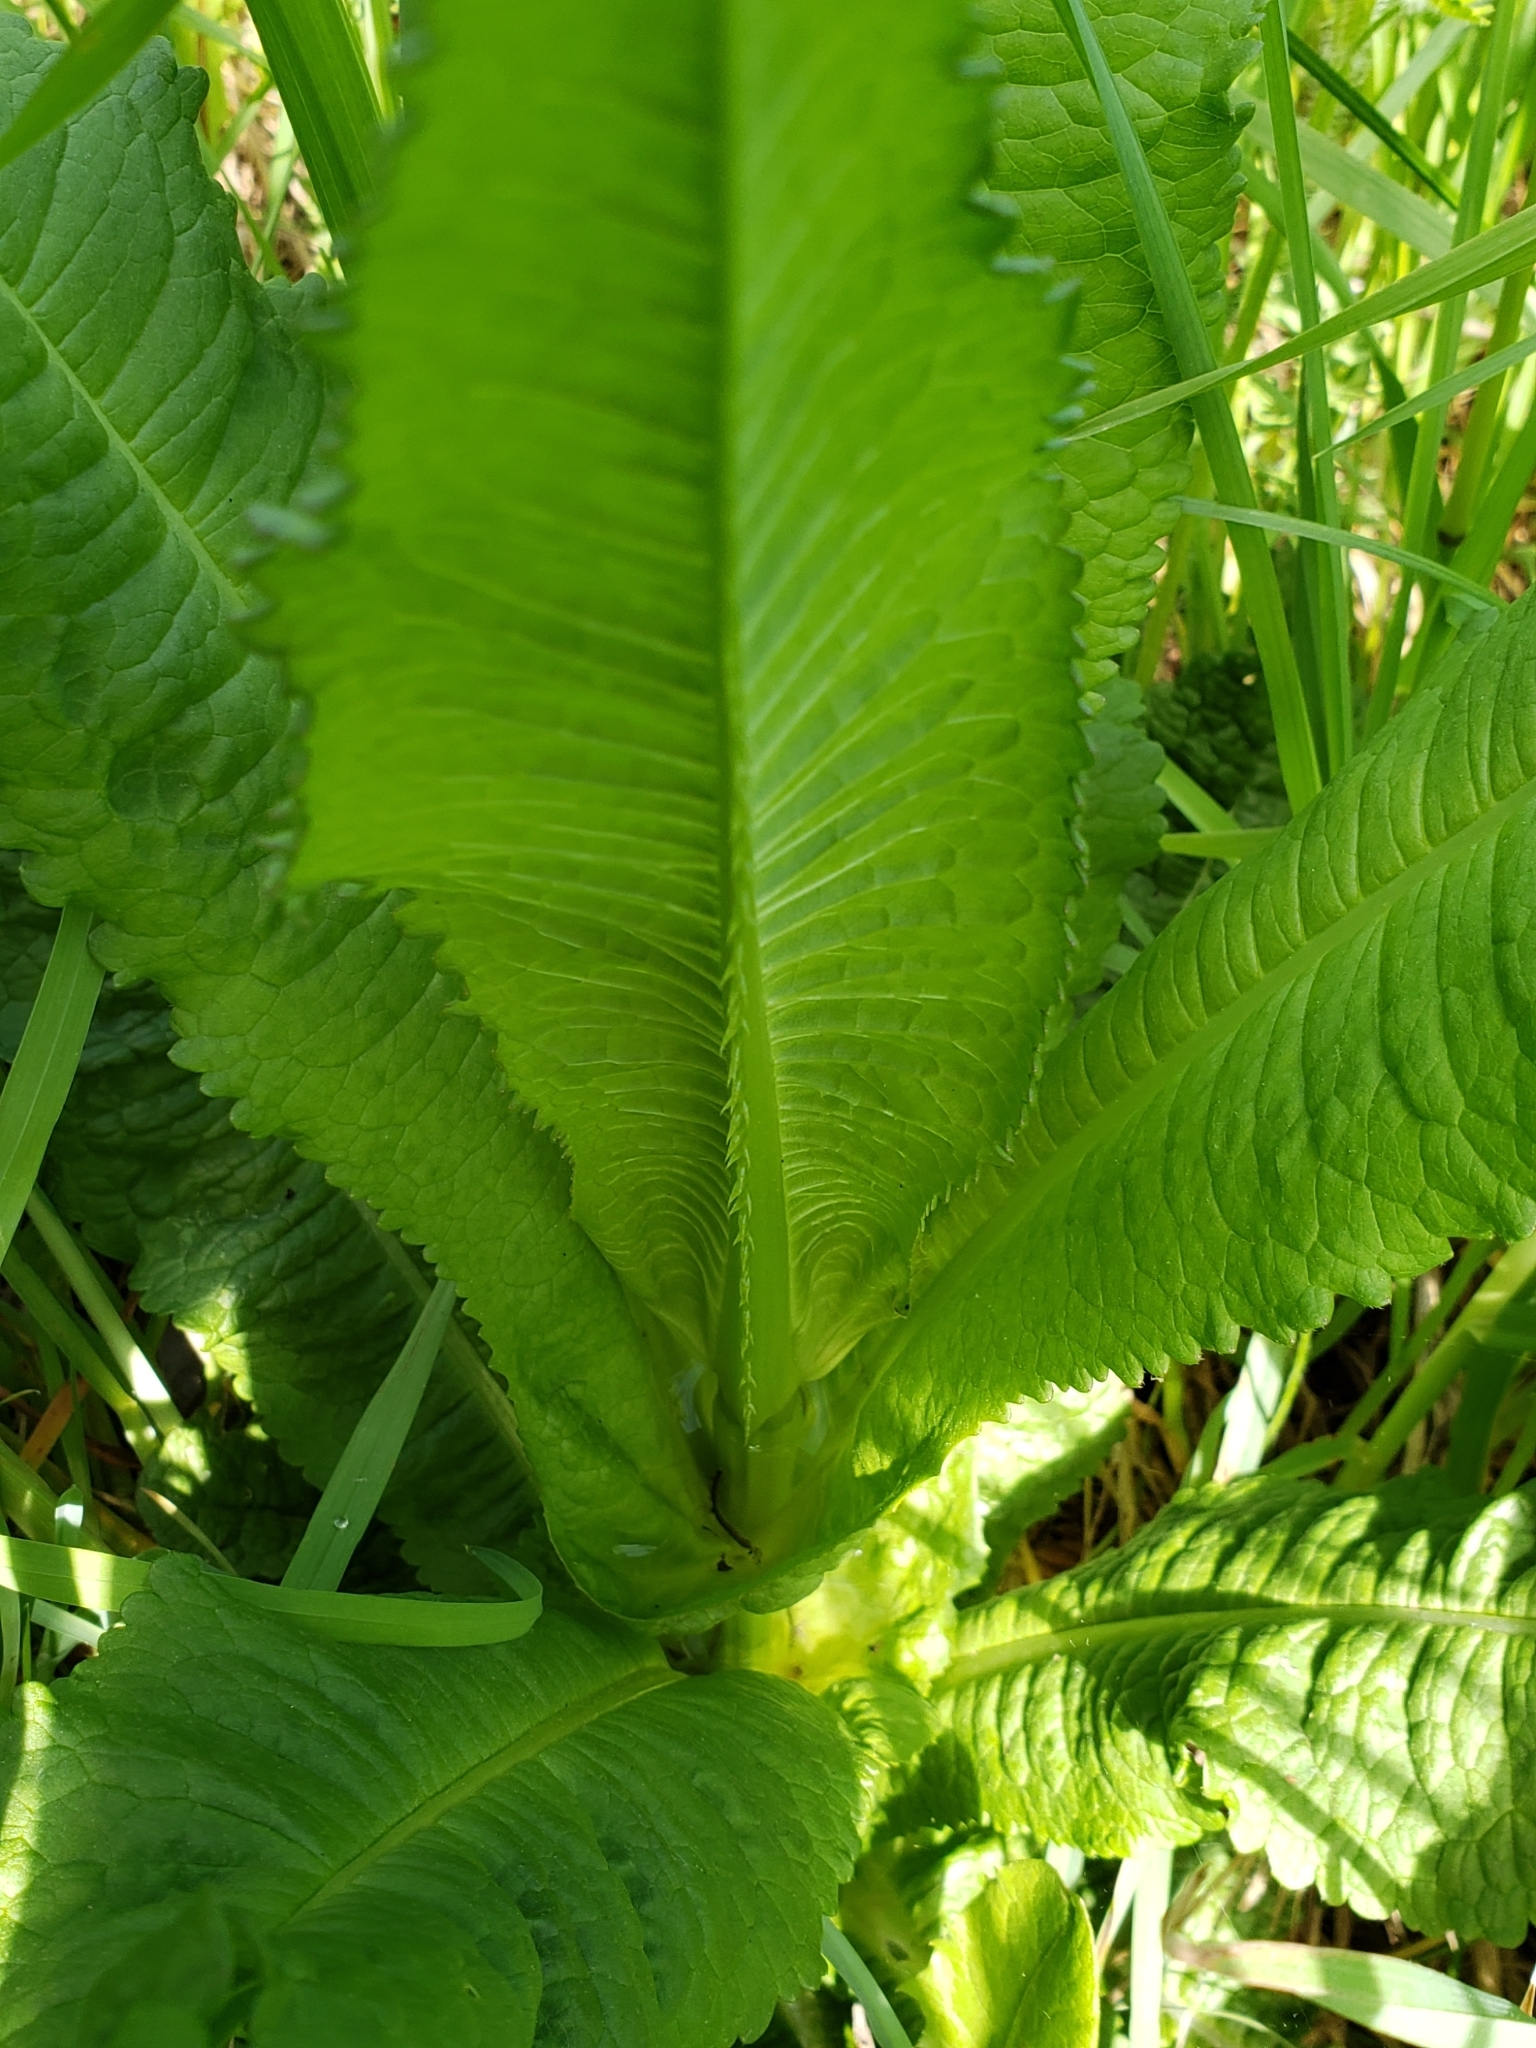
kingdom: Plantae
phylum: Tracheophyta
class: Magnoliopsida
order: Dipsacales
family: Caprifoliaceae
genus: Dipsacus
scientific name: Dipsacus fullonum
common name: Teasel
